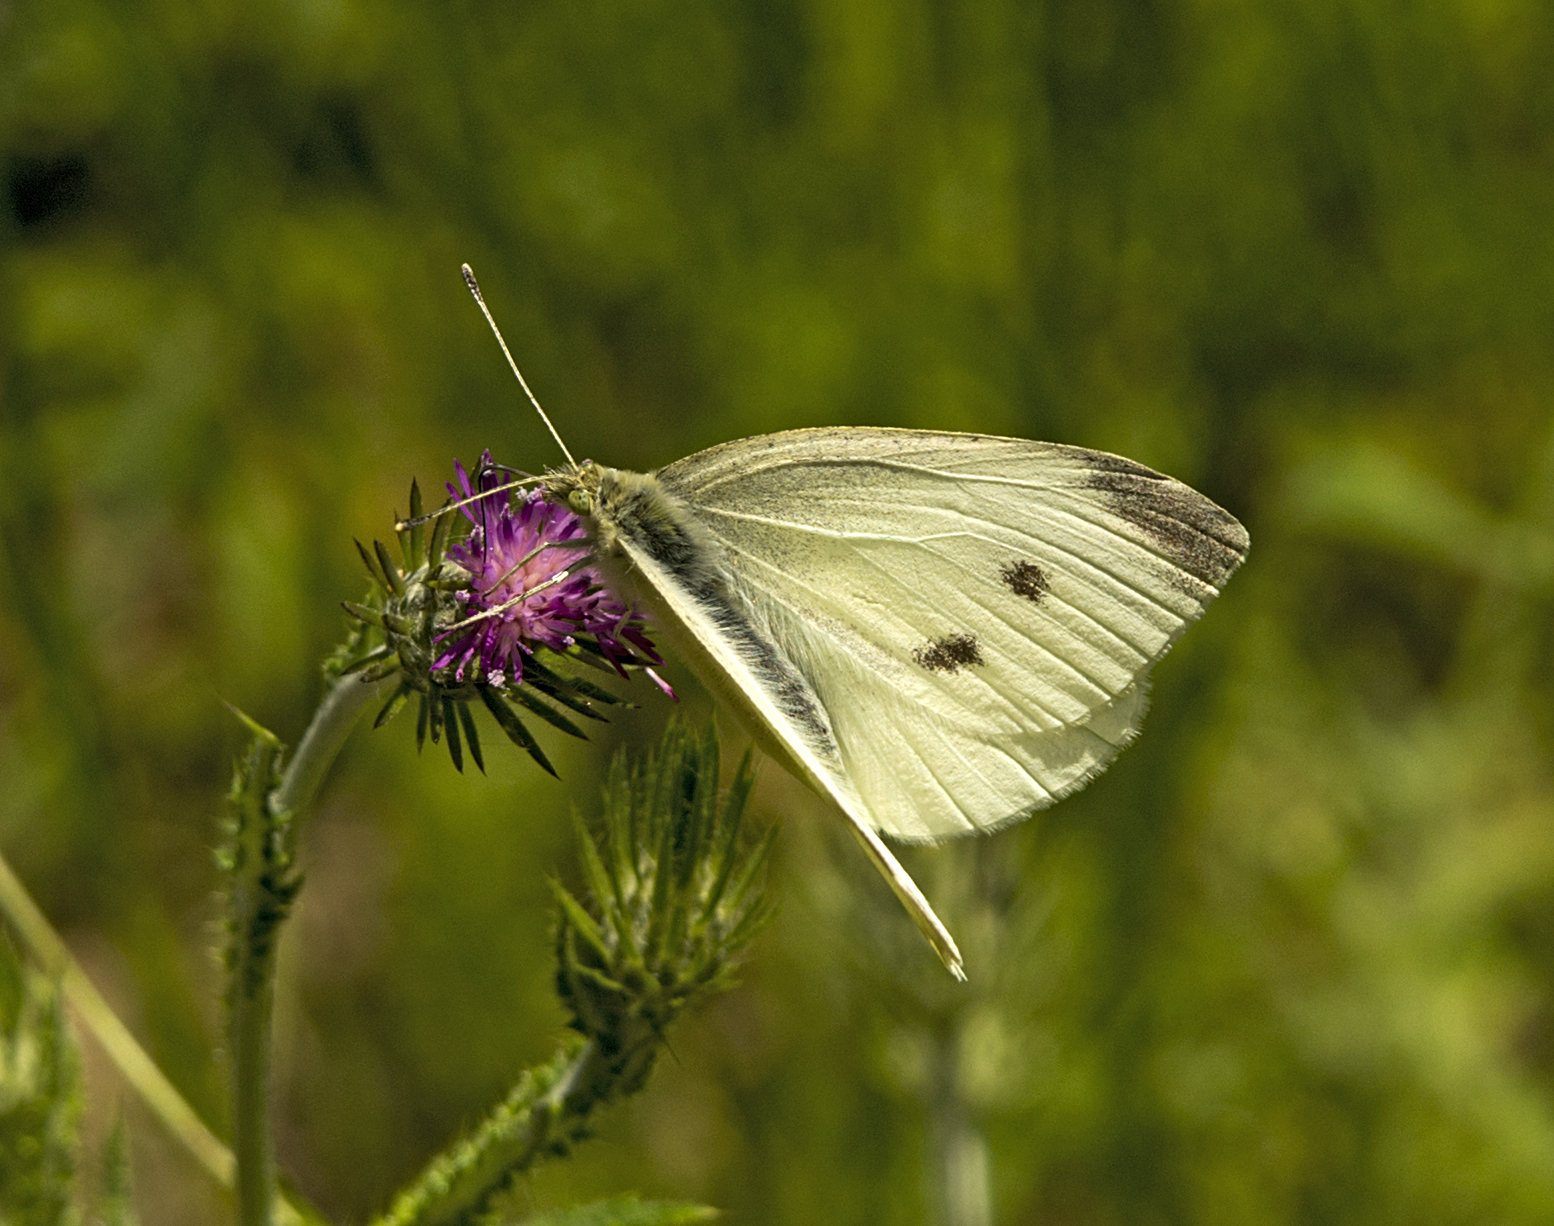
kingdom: Animalia
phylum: Arthropoda
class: Insecta
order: Lepidoptera
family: Pieridae
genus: Pieris
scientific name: Pieris rapae
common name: Small white
